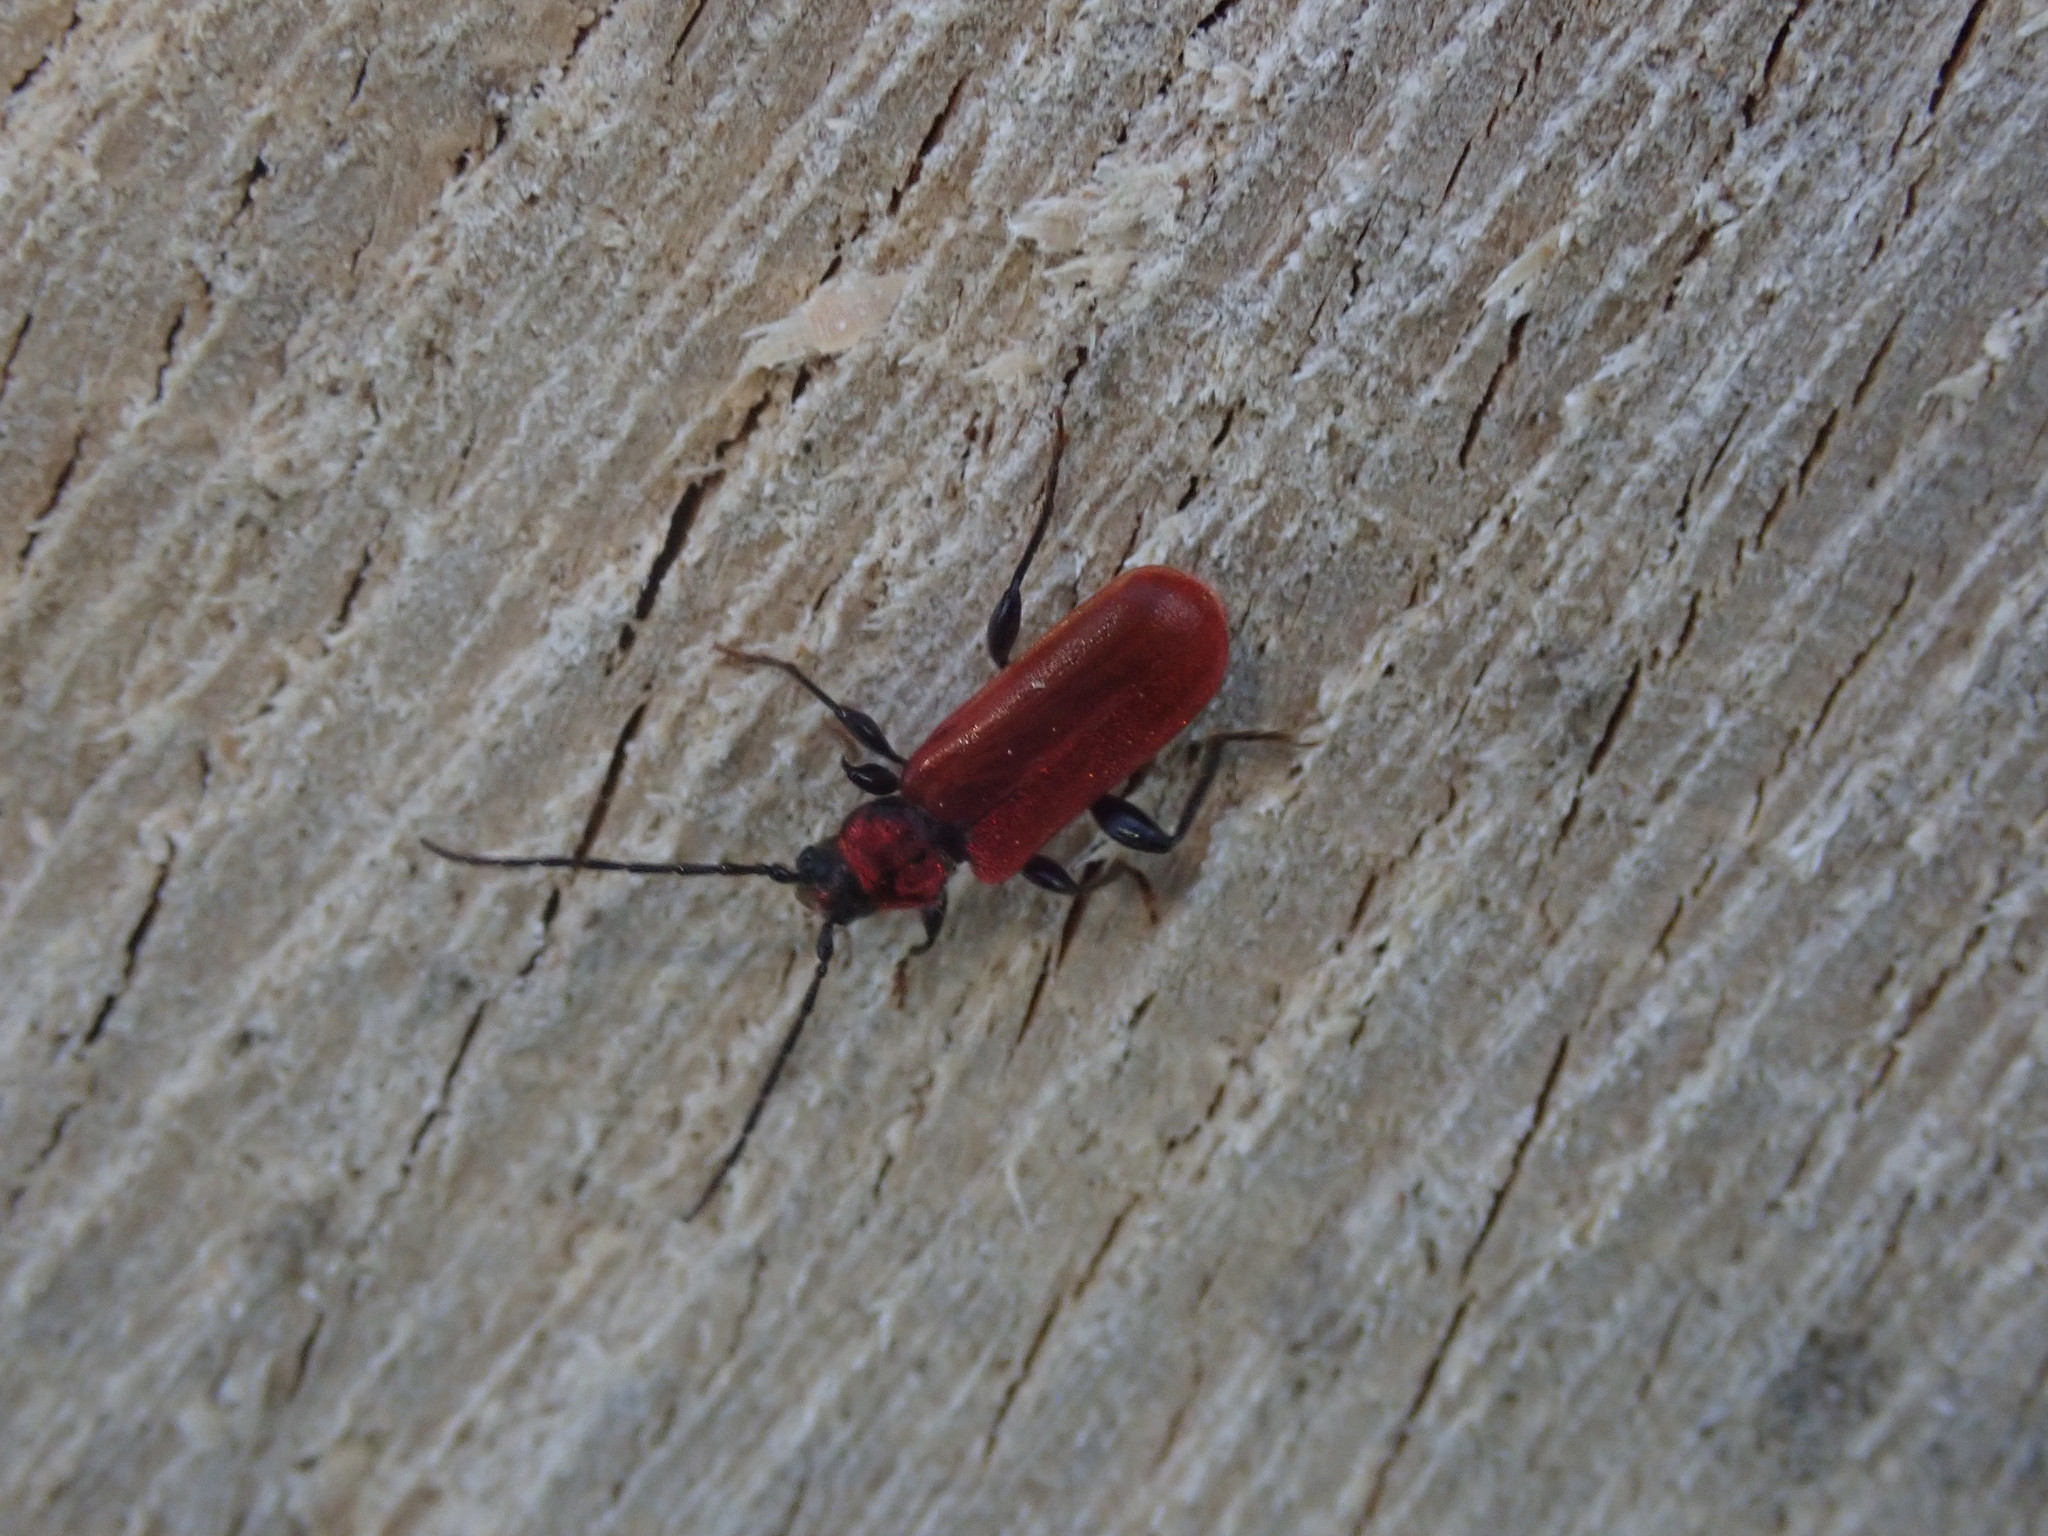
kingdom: Animalia
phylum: Arthropoda
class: Insecta
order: Coleoptera
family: Cerambycidae
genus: Pyrrhidium
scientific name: Pyrrhidium sanguineum
